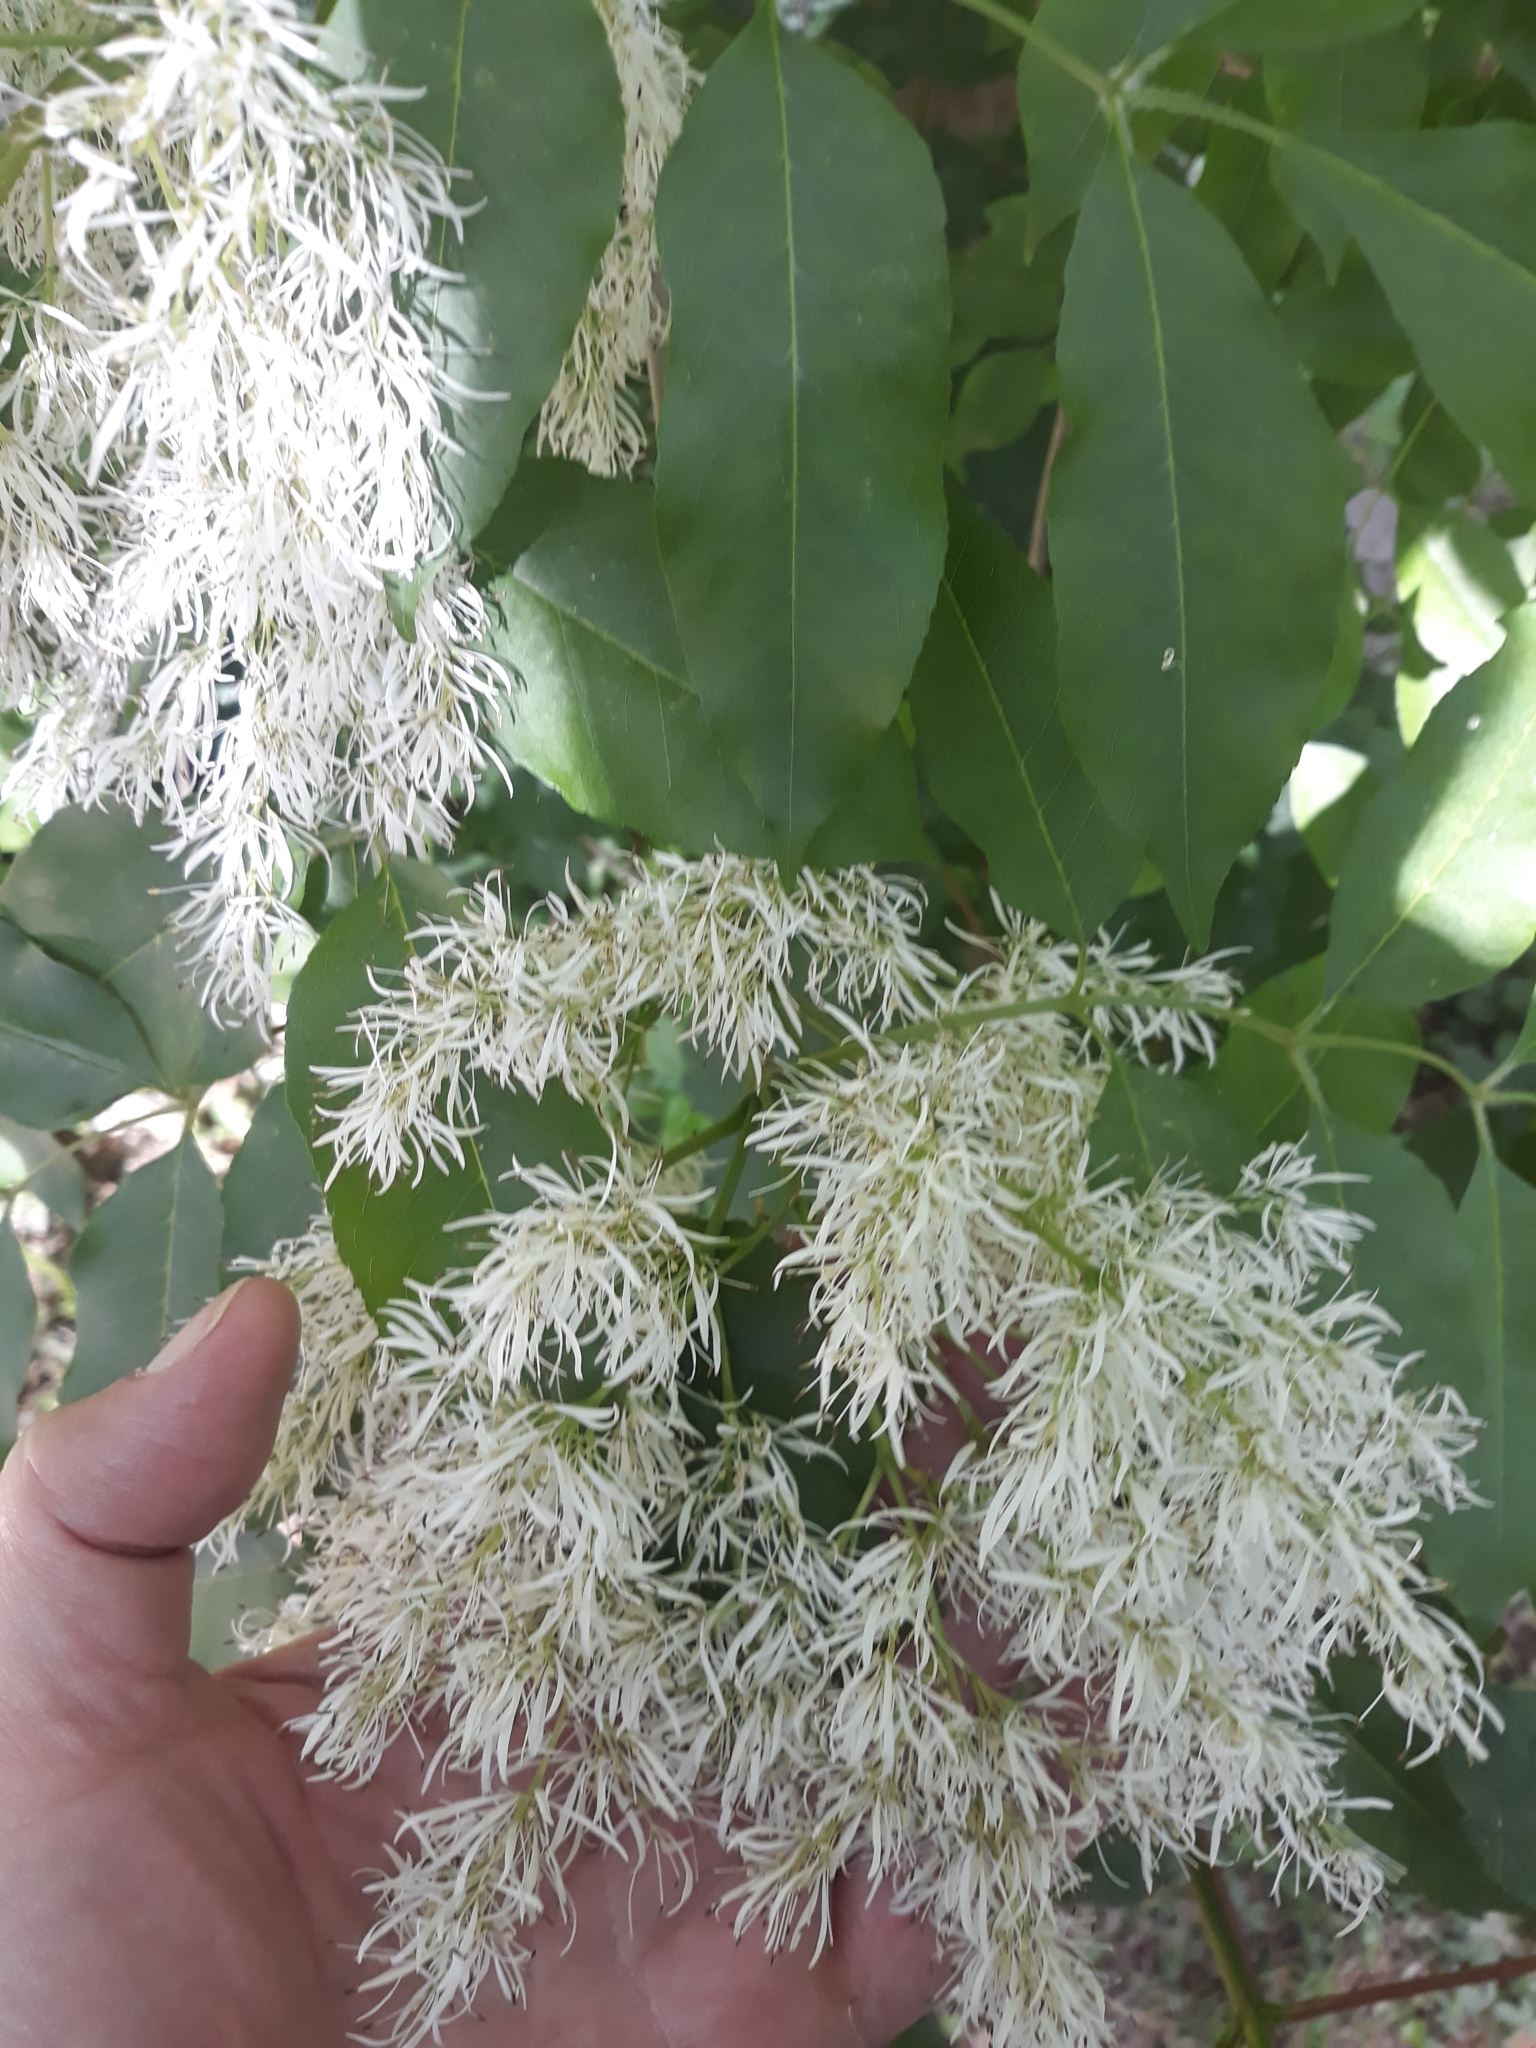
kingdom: Plantae
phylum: Tracheophyta
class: Magnoliopsida
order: Lamiales
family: Oleaceae
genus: Fraxinus
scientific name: Fraxinus ornus
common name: Manna ash
